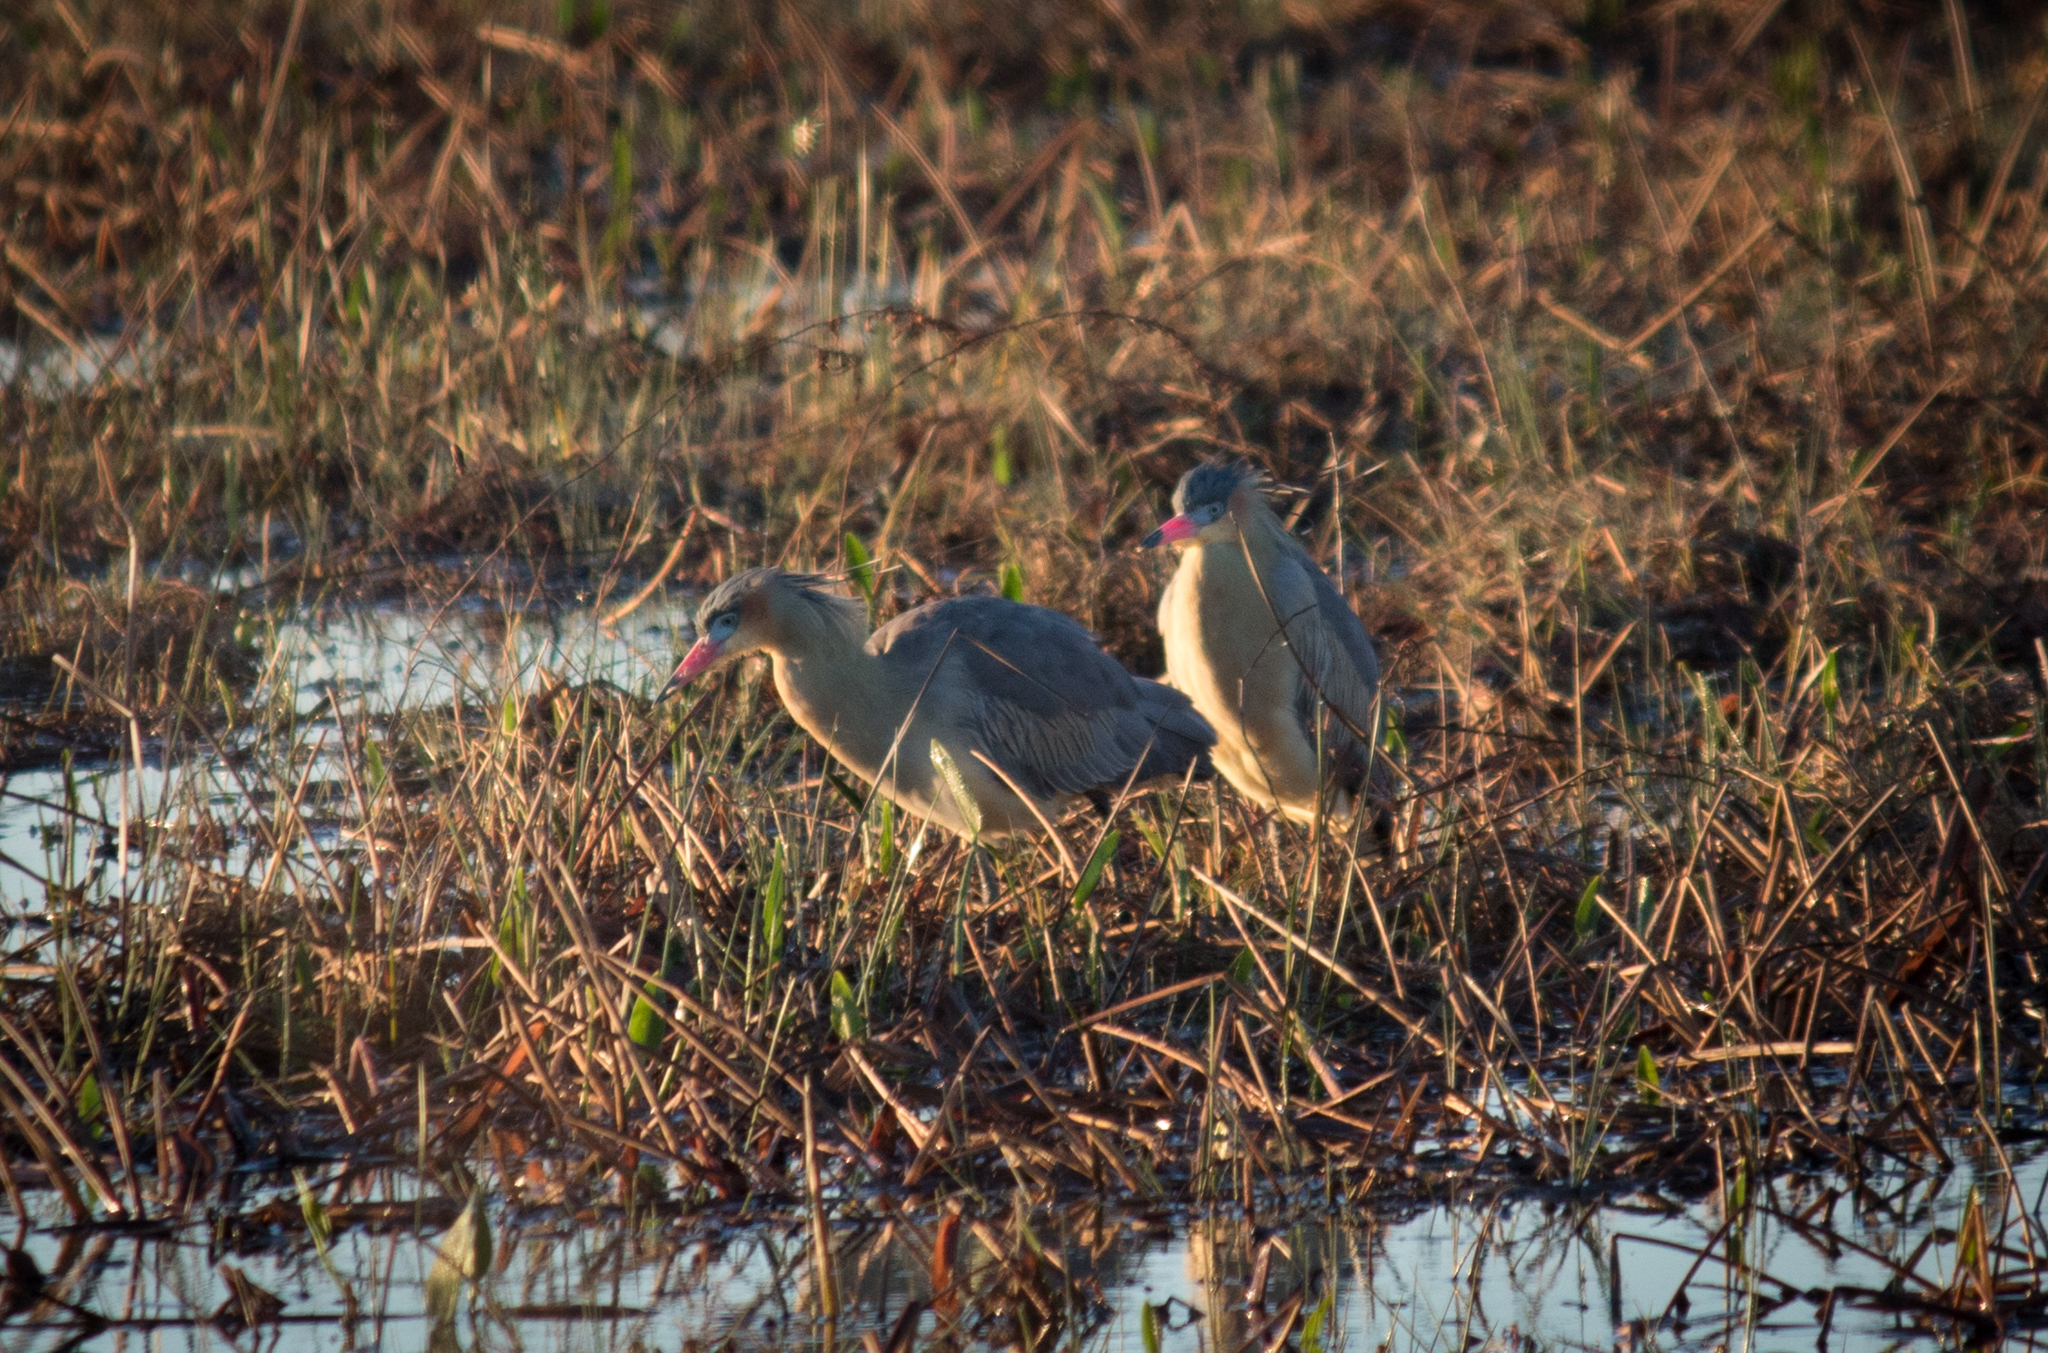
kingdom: Animalia
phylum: Chordata
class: Aves
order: Pelecaniformes
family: Ardeidae
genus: Syrigma
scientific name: Syrigma sibilatrix
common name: Whistling heron
